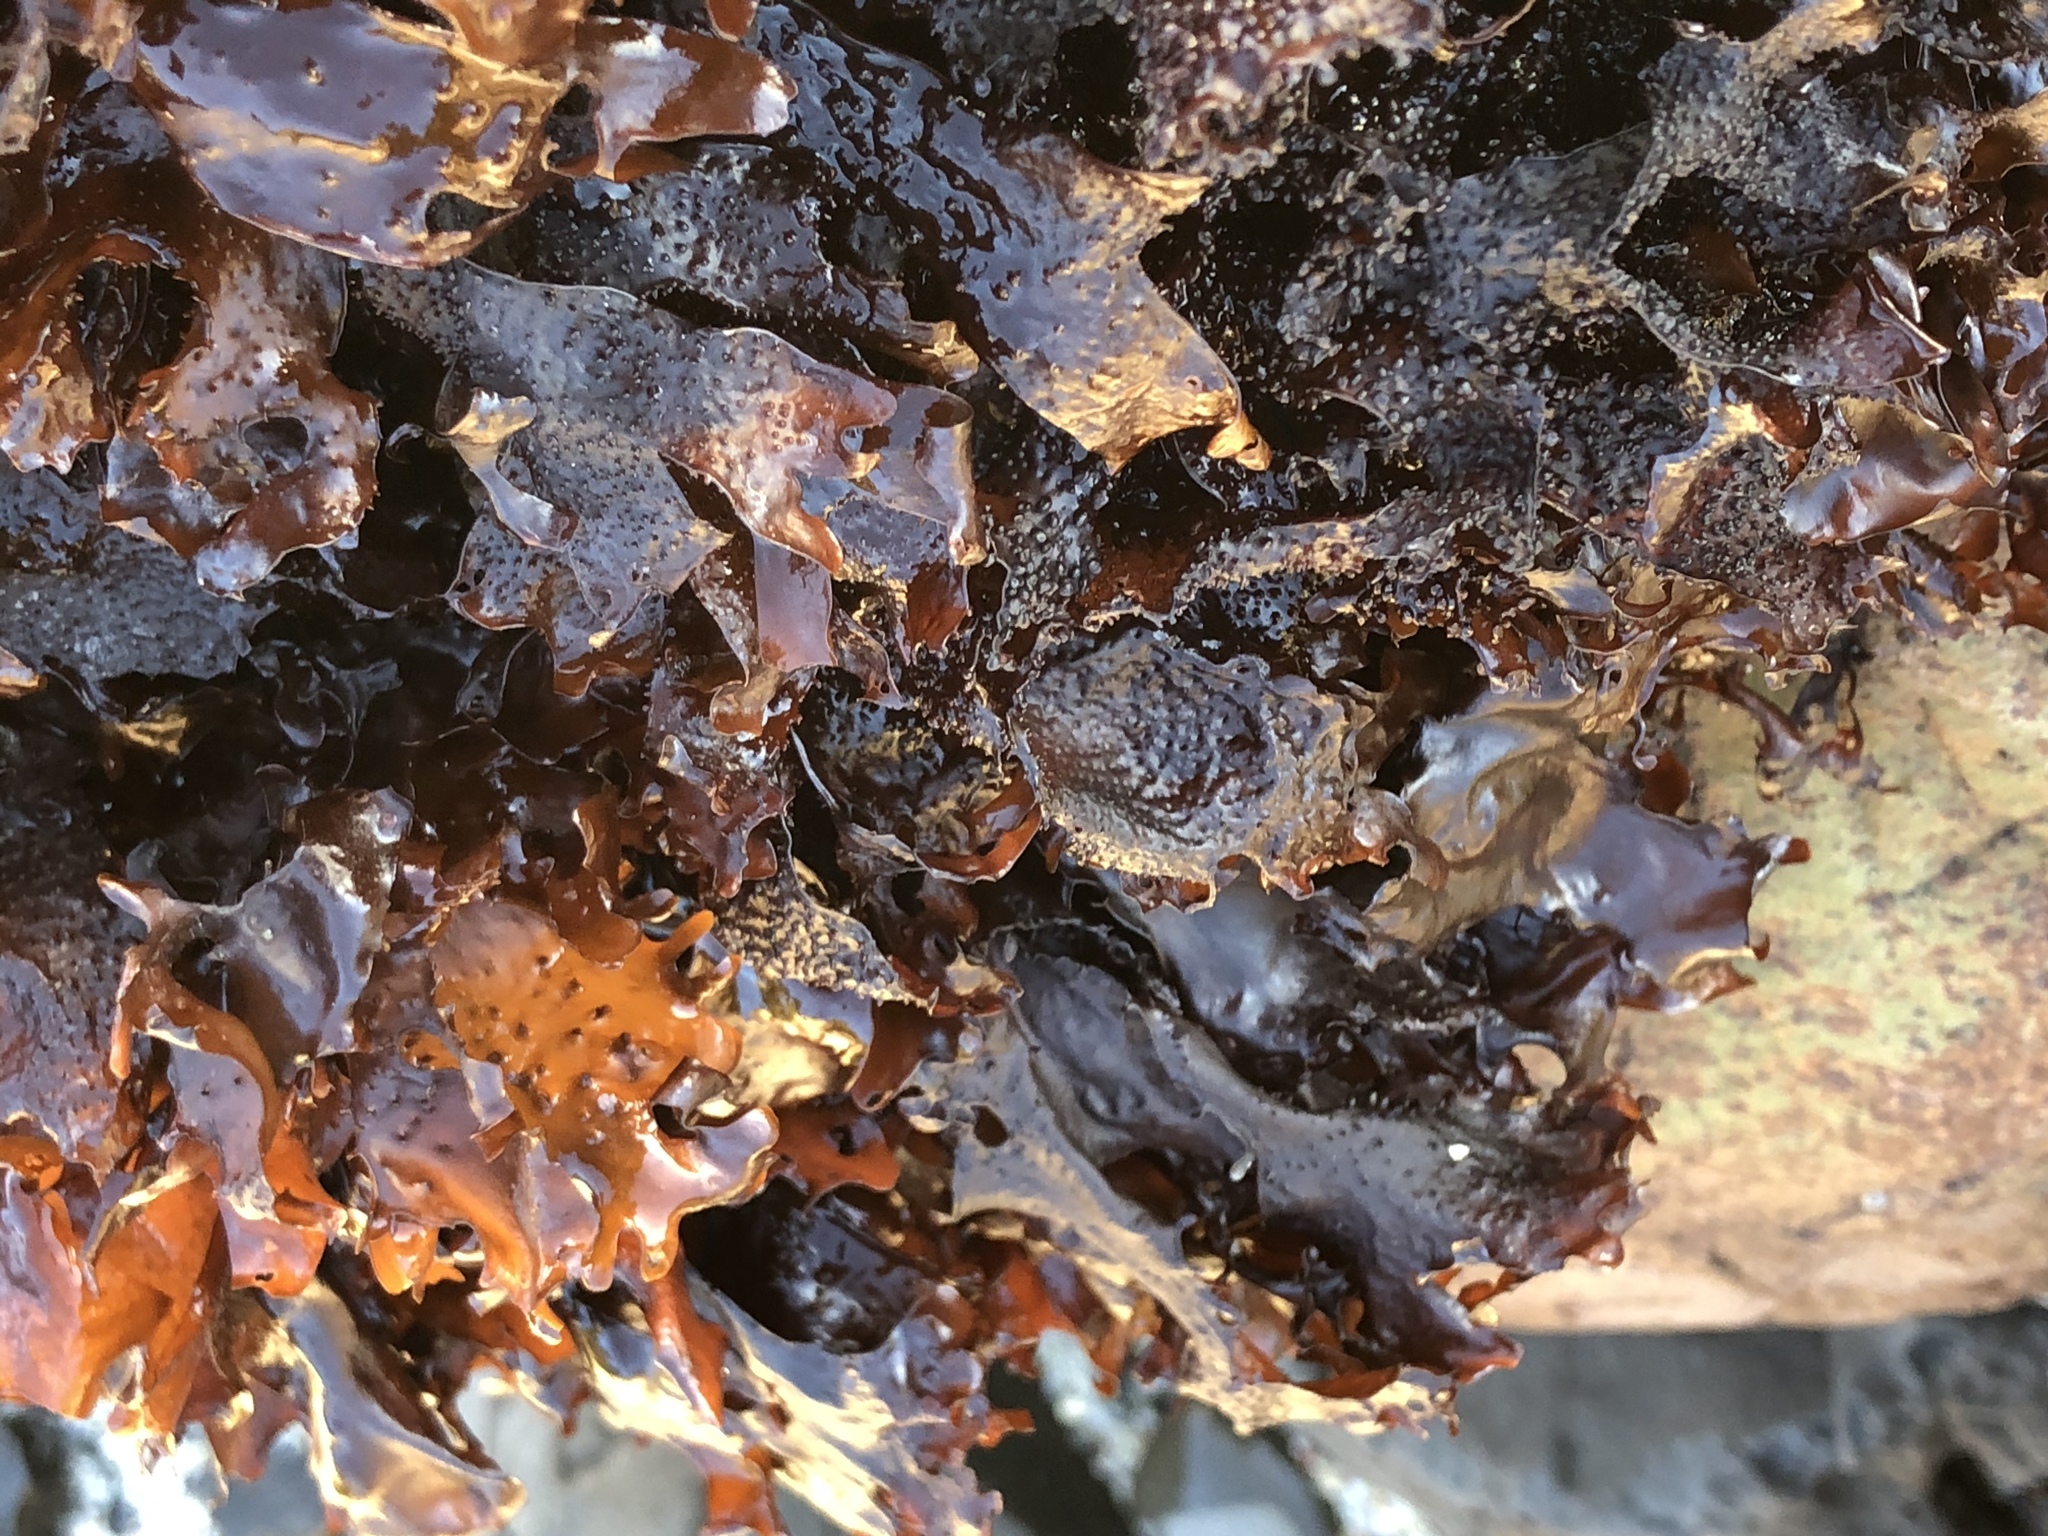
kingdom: Plantae
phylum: Rhodophyta
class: Florideophyceae
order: Gigartinales
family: Phyllophoraceae
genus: Mastocarpus
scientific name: Mastocarpus papillatus
